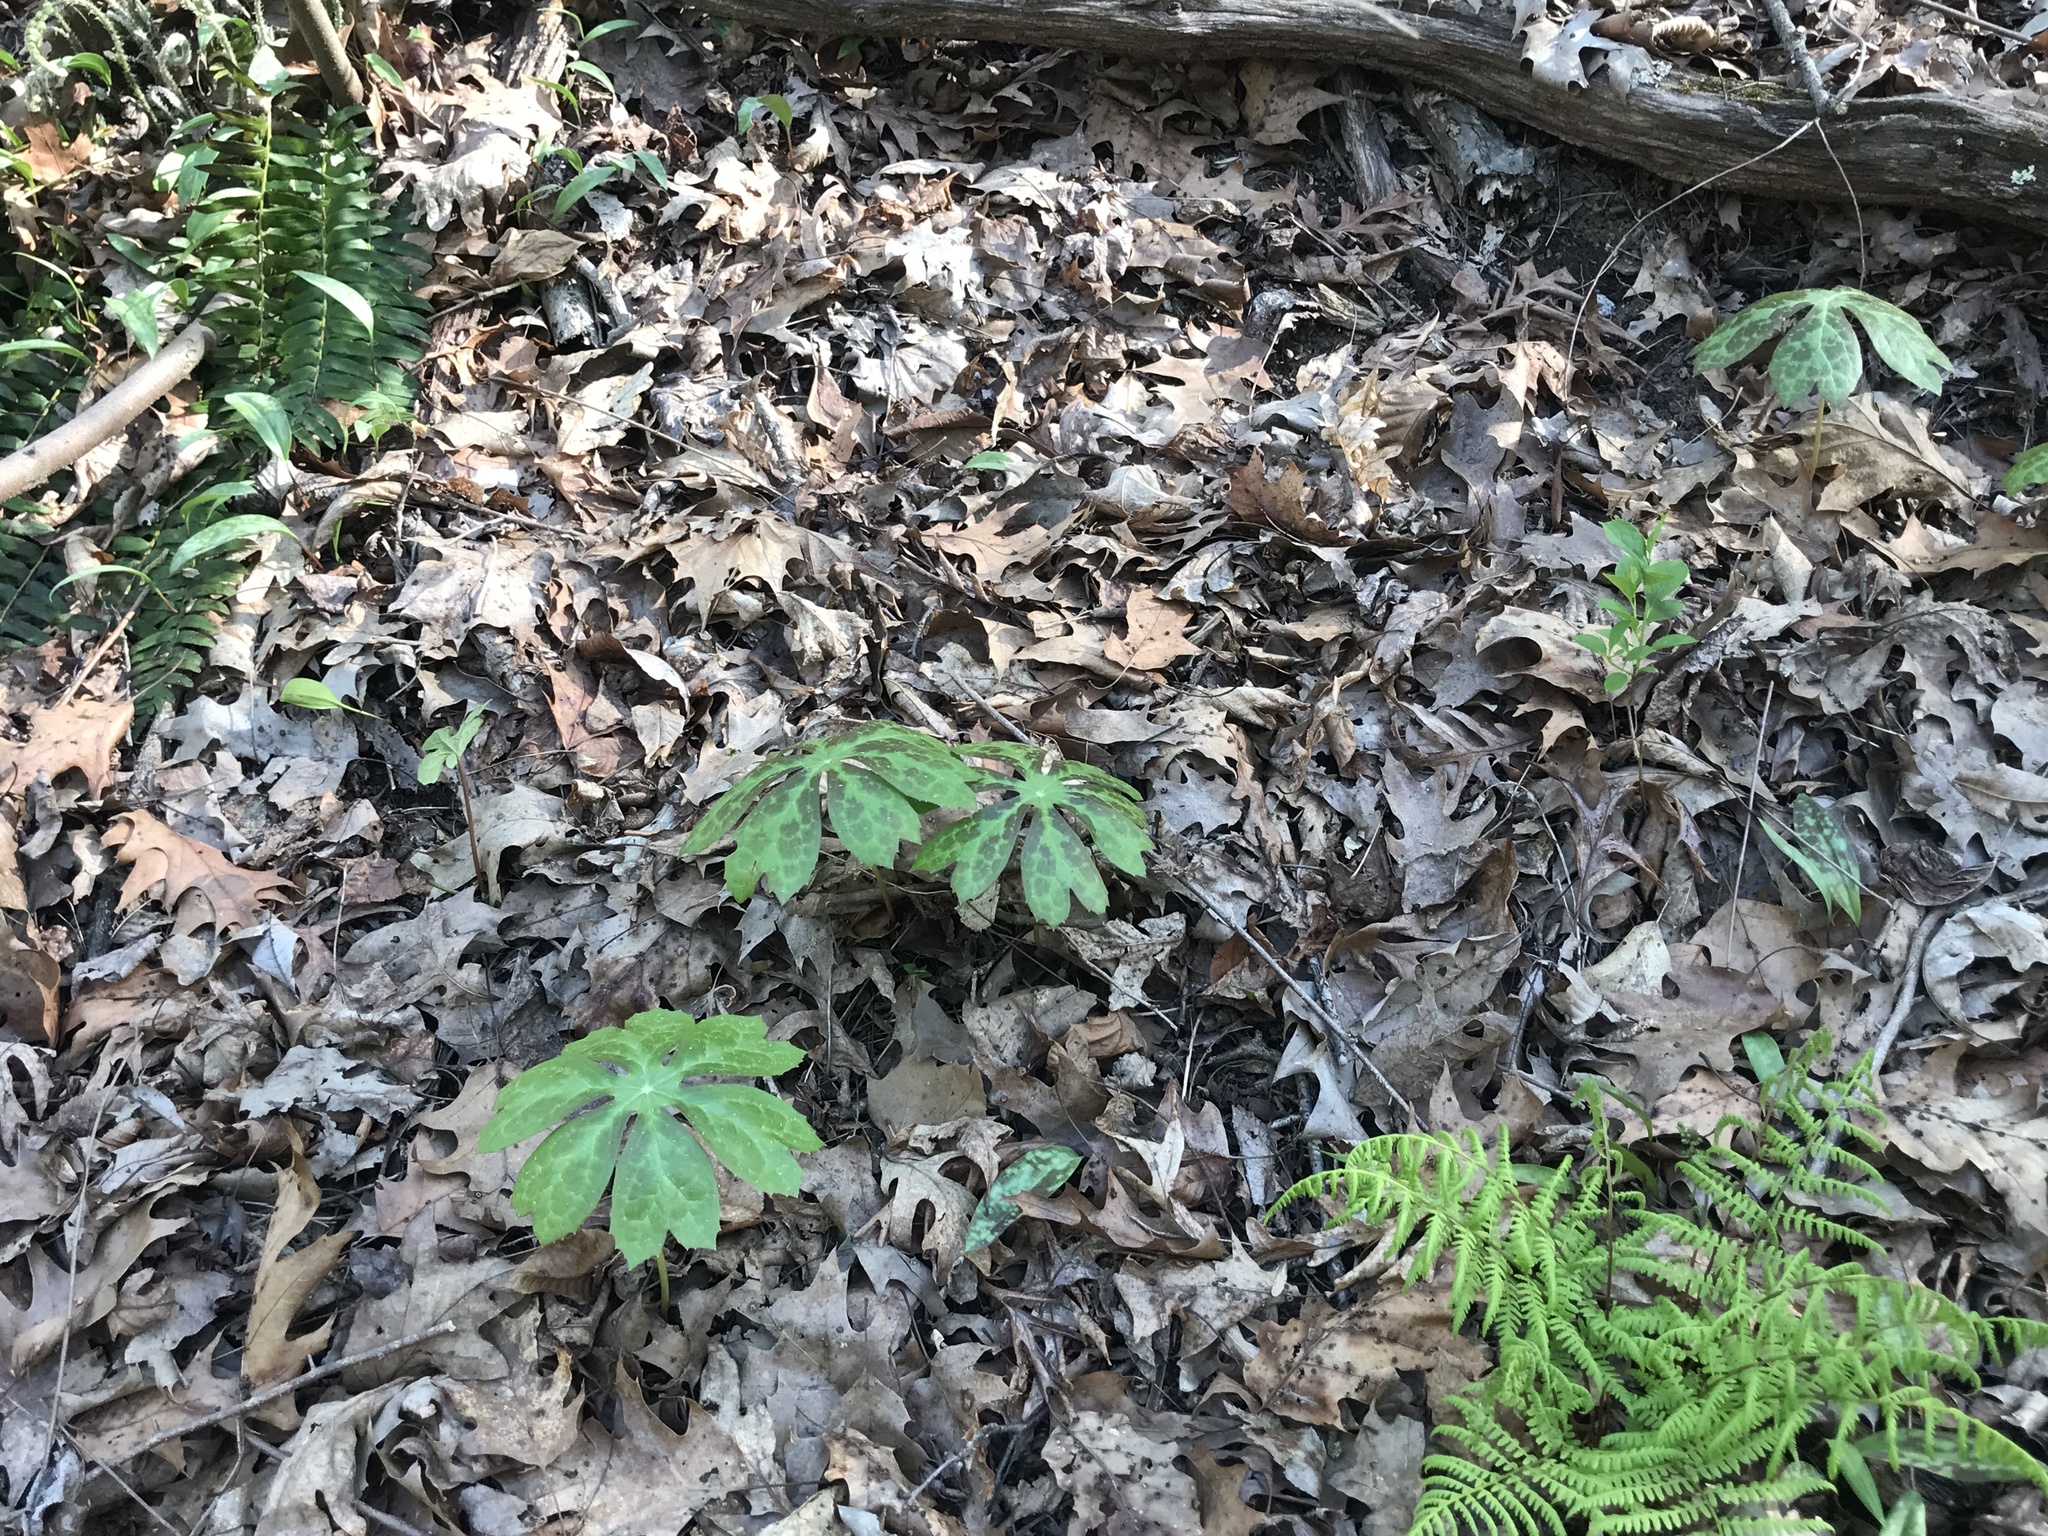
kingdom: Plantae
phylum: Tracheophyta
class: Magnoliopsida
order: Ranunculales
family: Berberidaceae
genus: Podophyllum
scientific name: Podophyllum peltatum
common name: Wild mandrake
